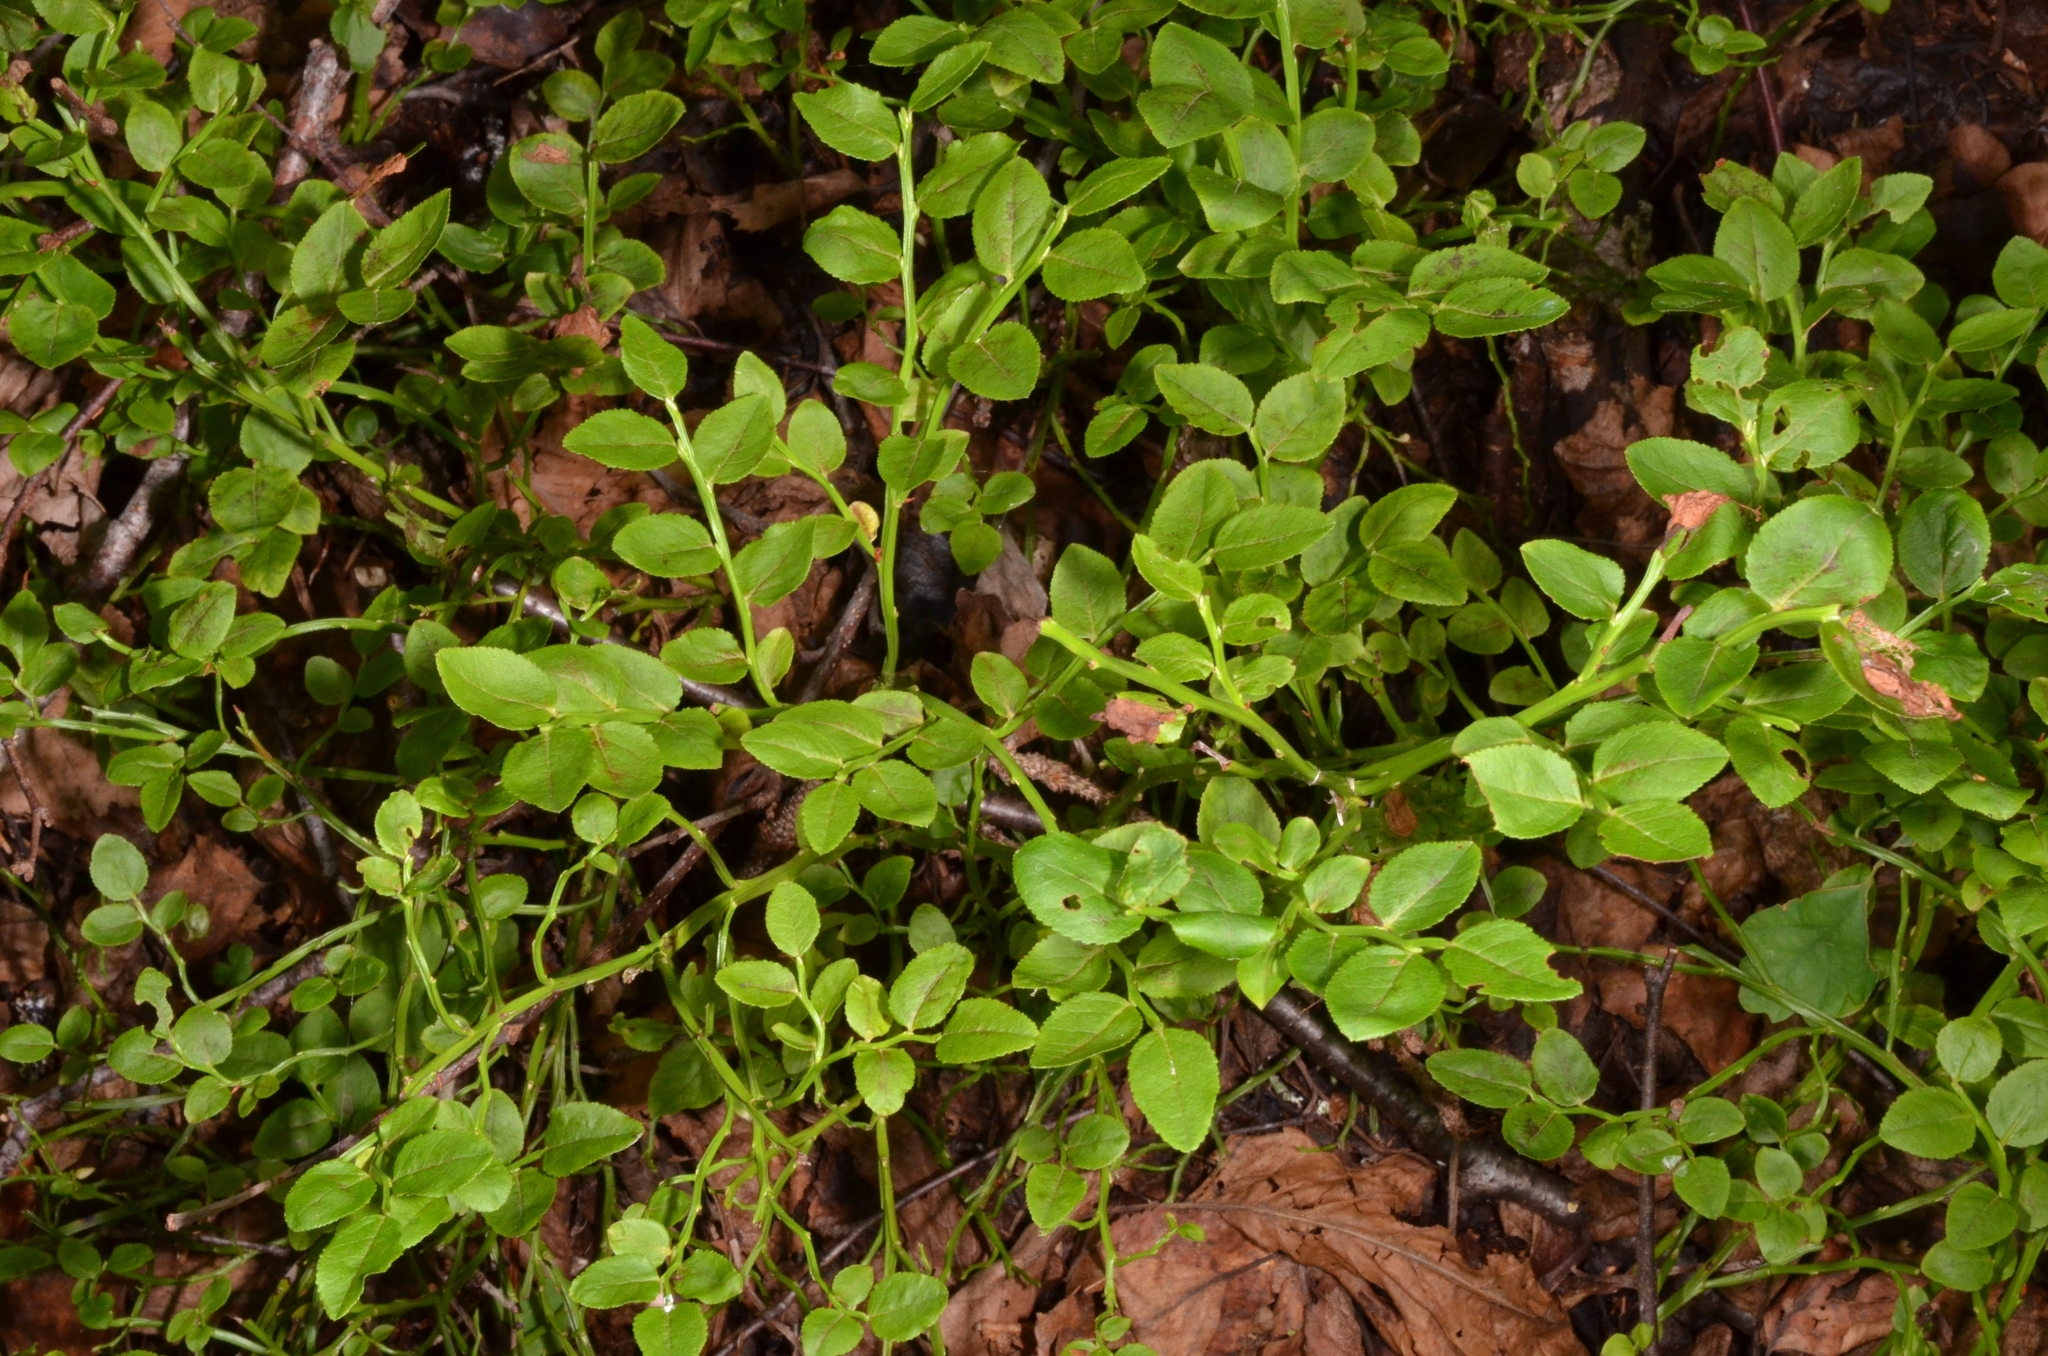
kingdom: Plantae
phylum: Tracheophyta
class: Magnoliopsida
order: Ericales
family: Ericaceae
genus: Vaccinium
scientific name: Vaccinium myrtillus
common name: Bilberry
